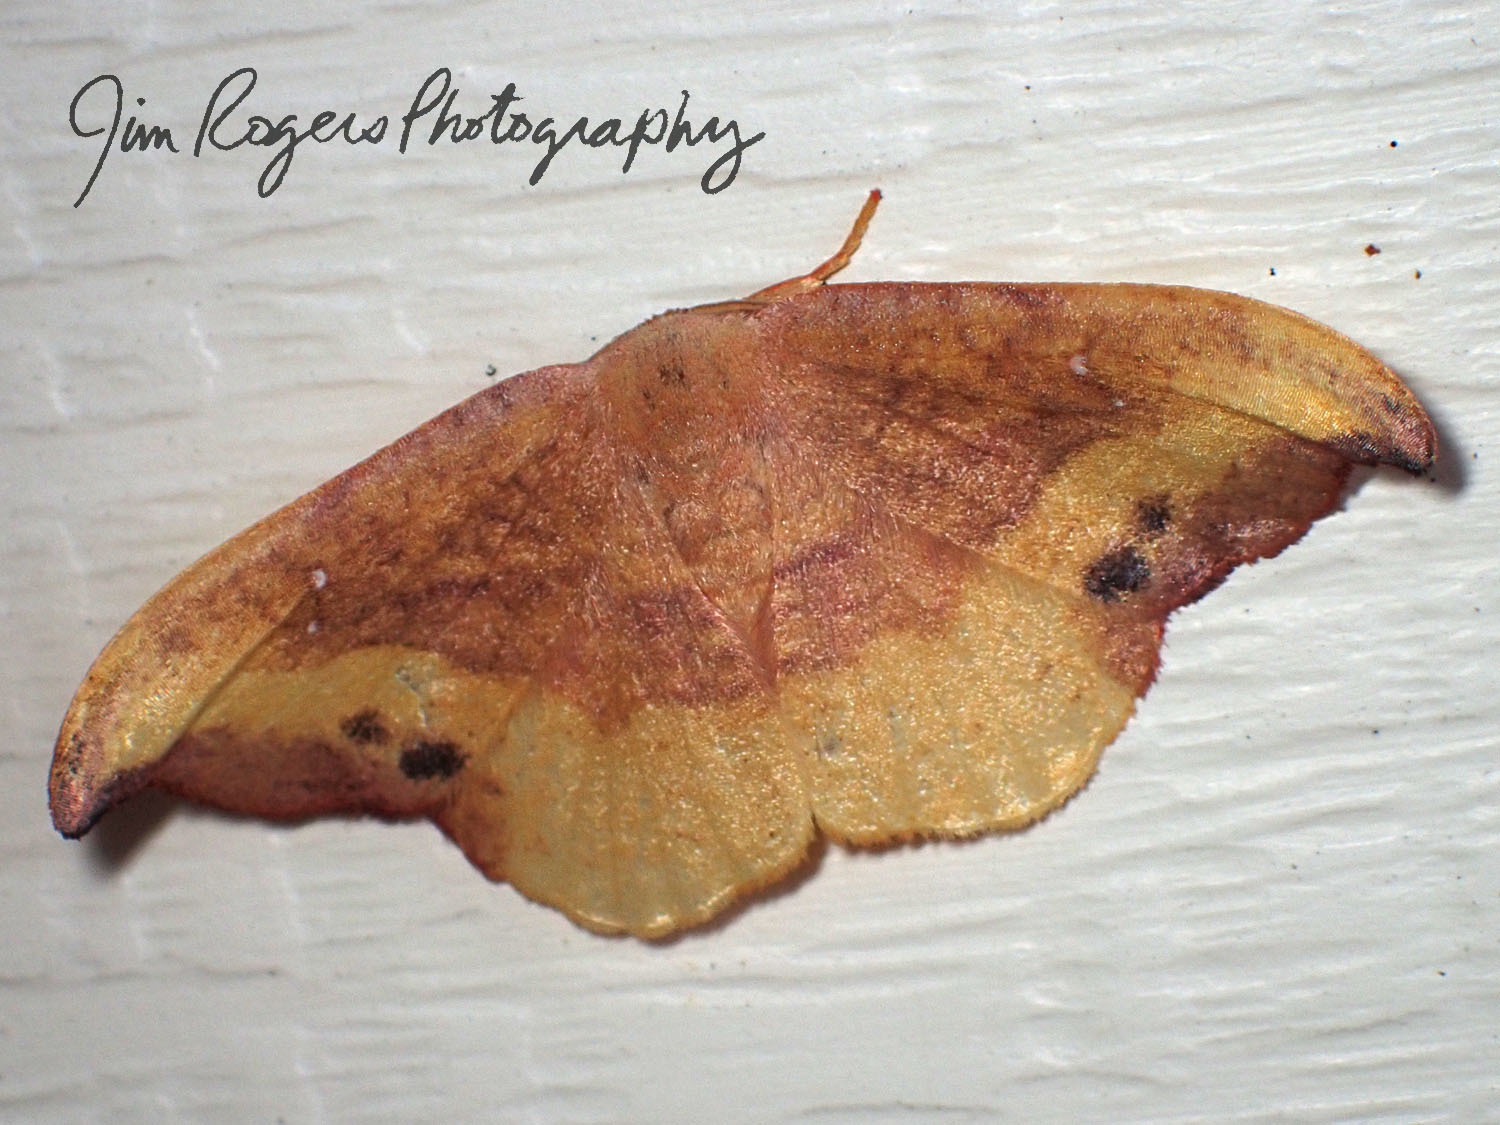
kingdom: Animalia
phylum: Arthropoda
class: Insecta
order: Lepidoptera
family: Drepanidae
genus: Oreta
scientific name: Oreta rosea
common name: Rose hooktip
